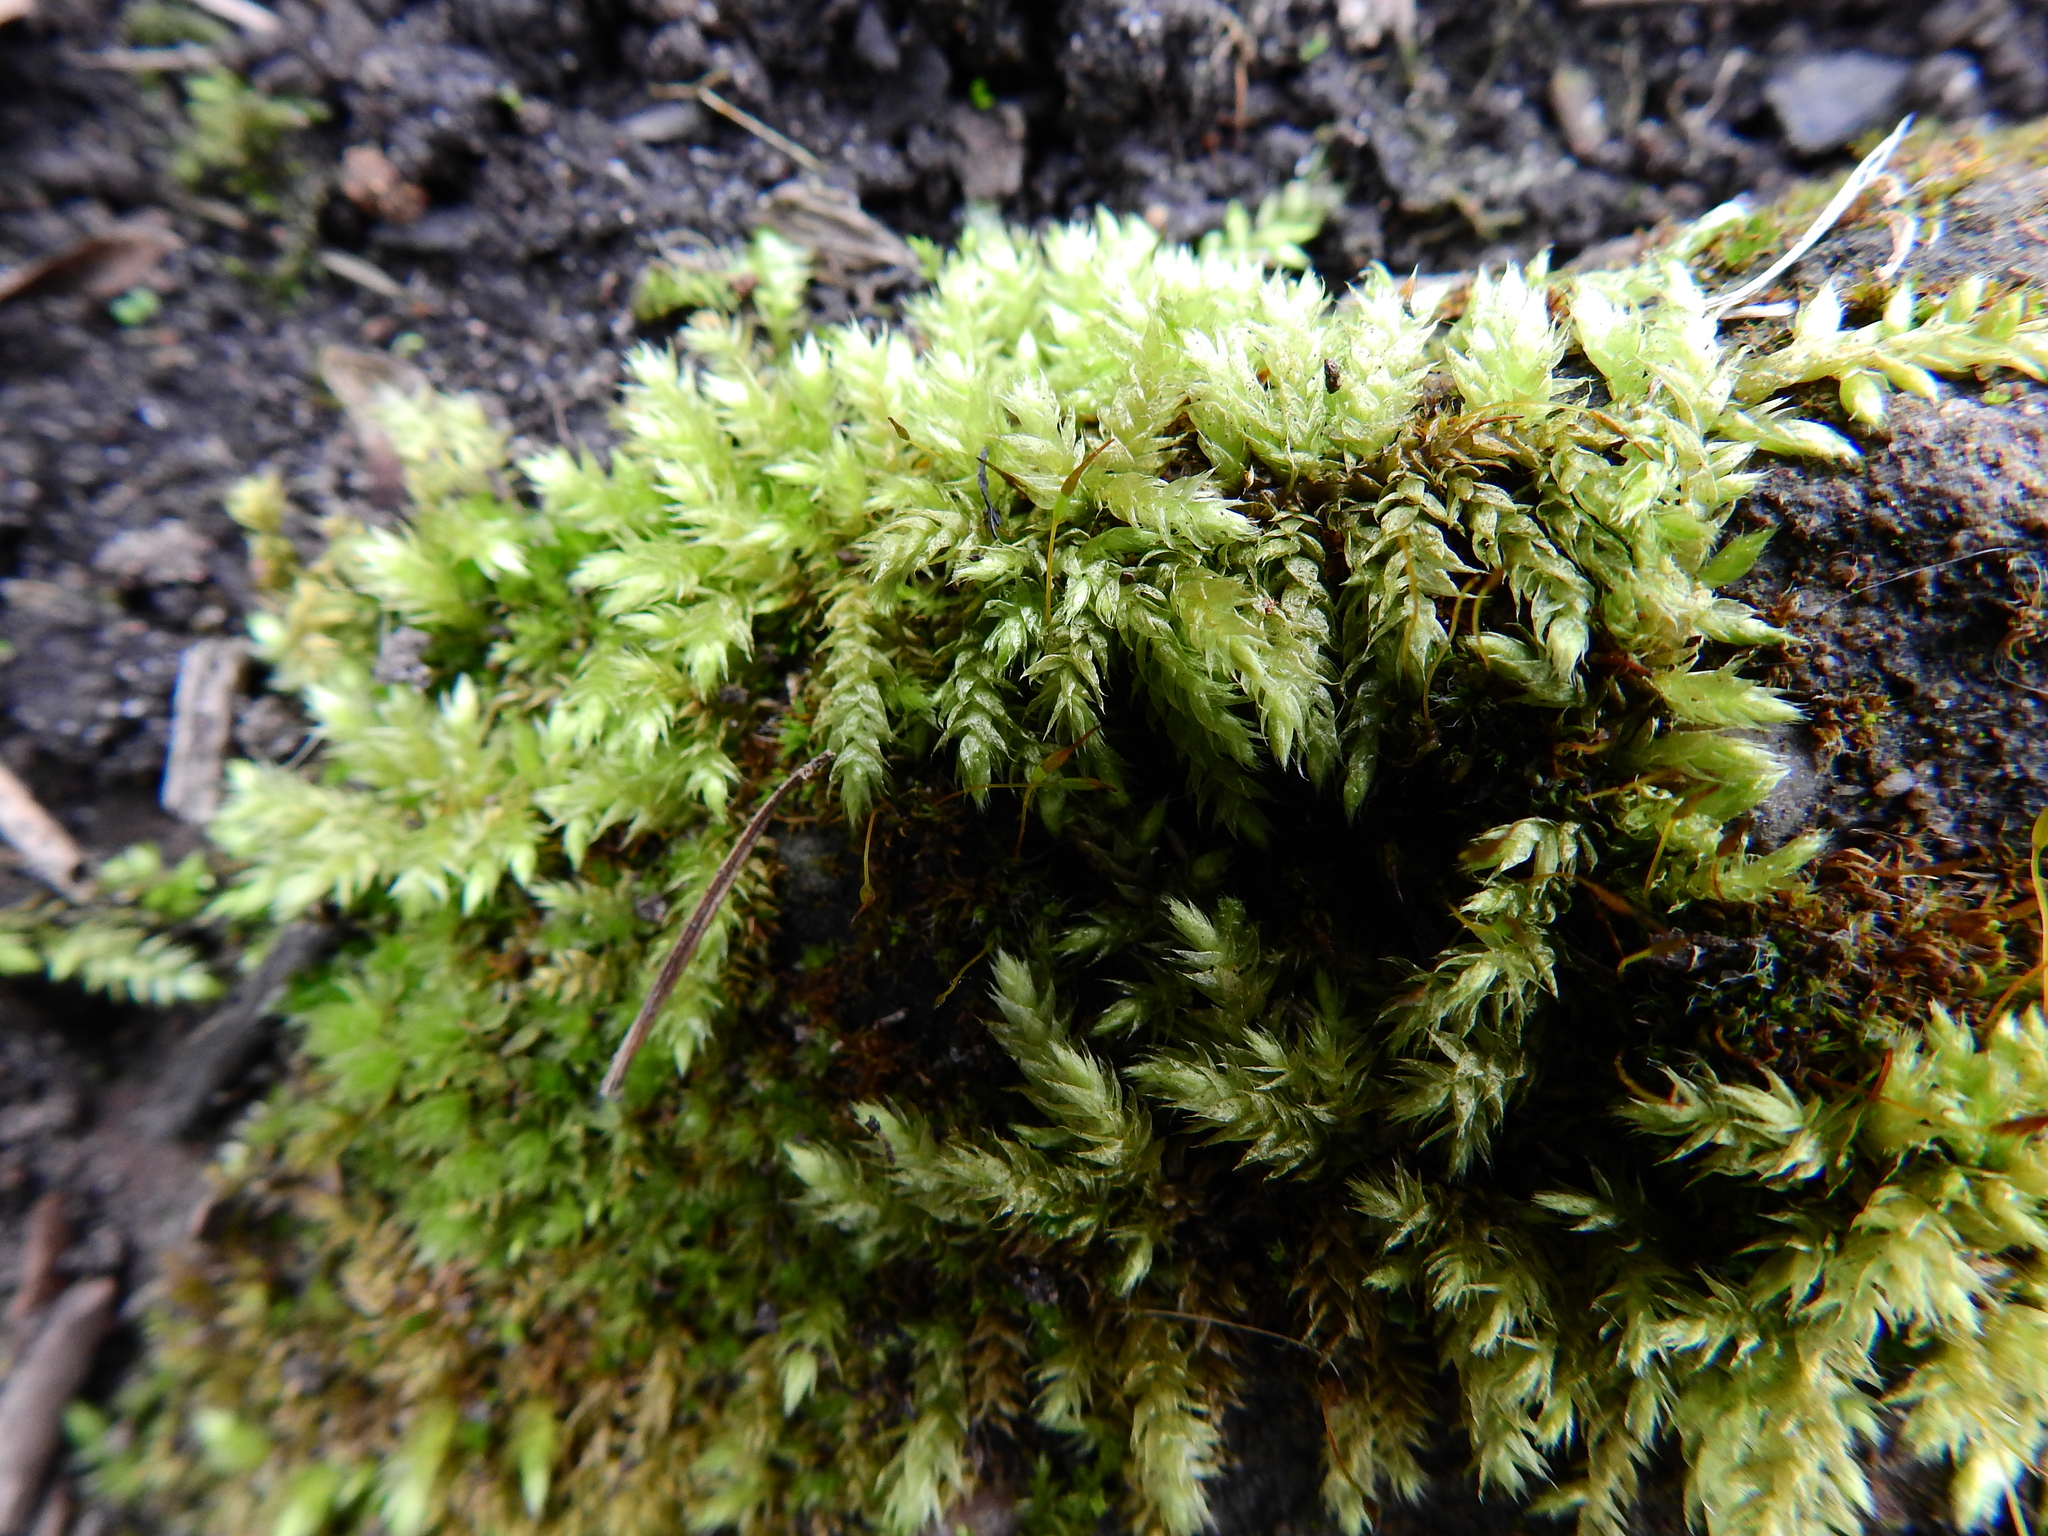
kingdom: Plantae
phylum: Bryophyta
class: Bryopsida
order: Hypnales
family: Brachytheciaceae
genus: Brachythecium
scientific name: Brachythecium rutabulum
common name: Rough-stalked feather-moss
